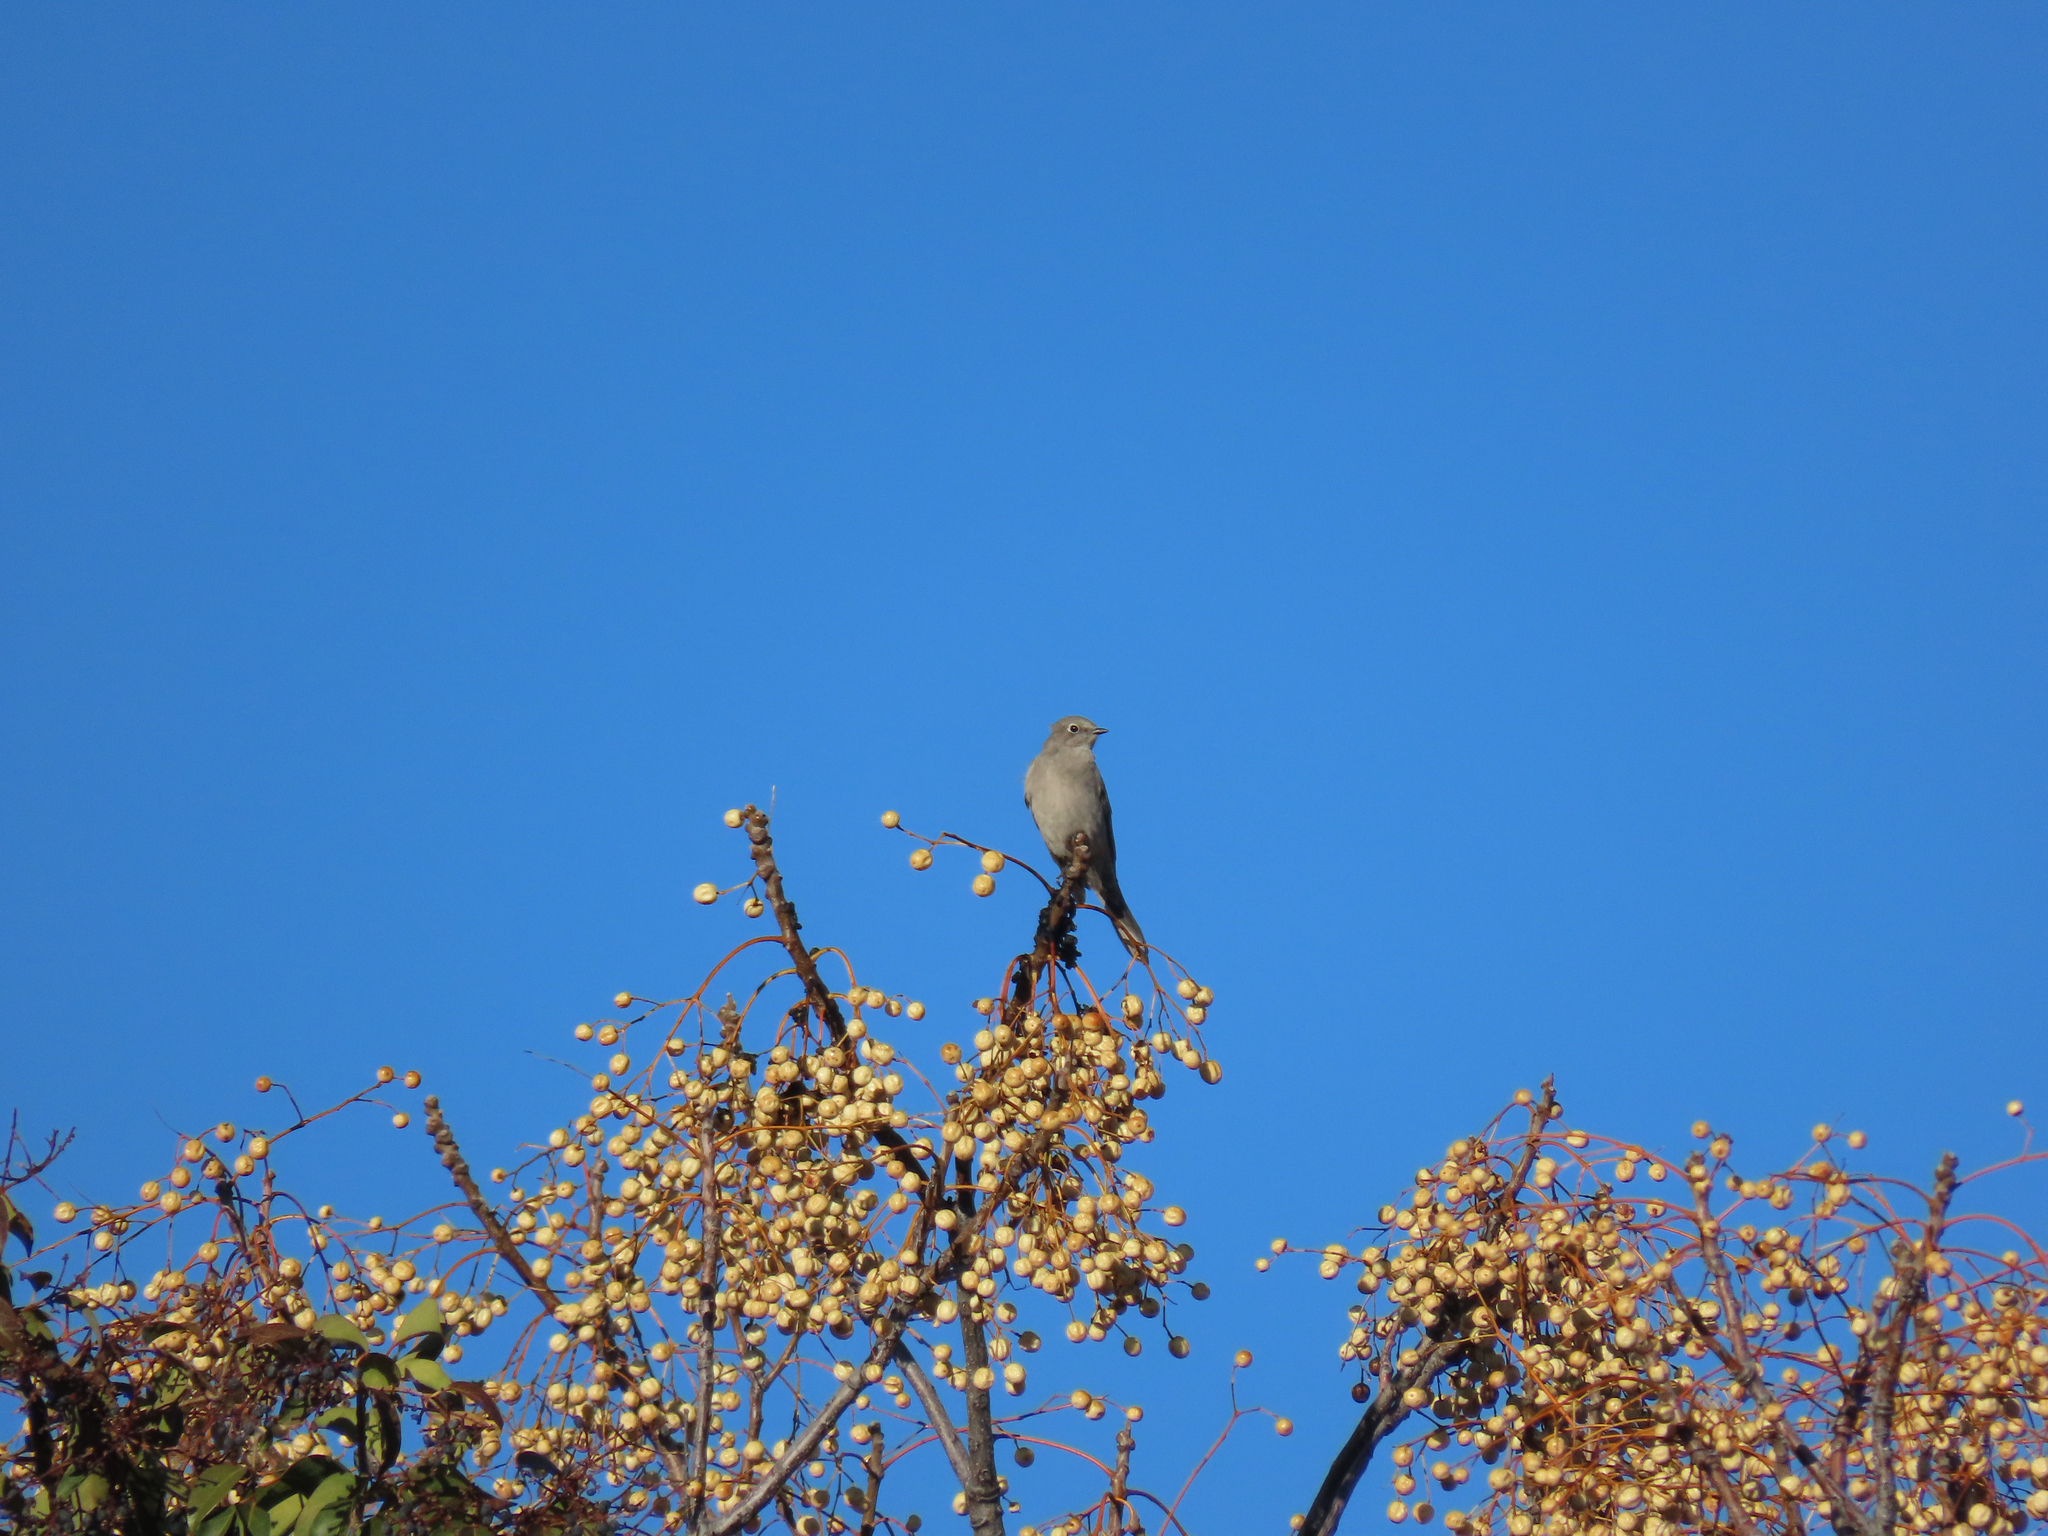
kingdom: Animalia
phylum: Chordata
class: Aves
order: Passeriformes
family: Turdidae
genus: Myadestes
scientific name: Myadestes townsendi
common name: Townsend's solitaire
